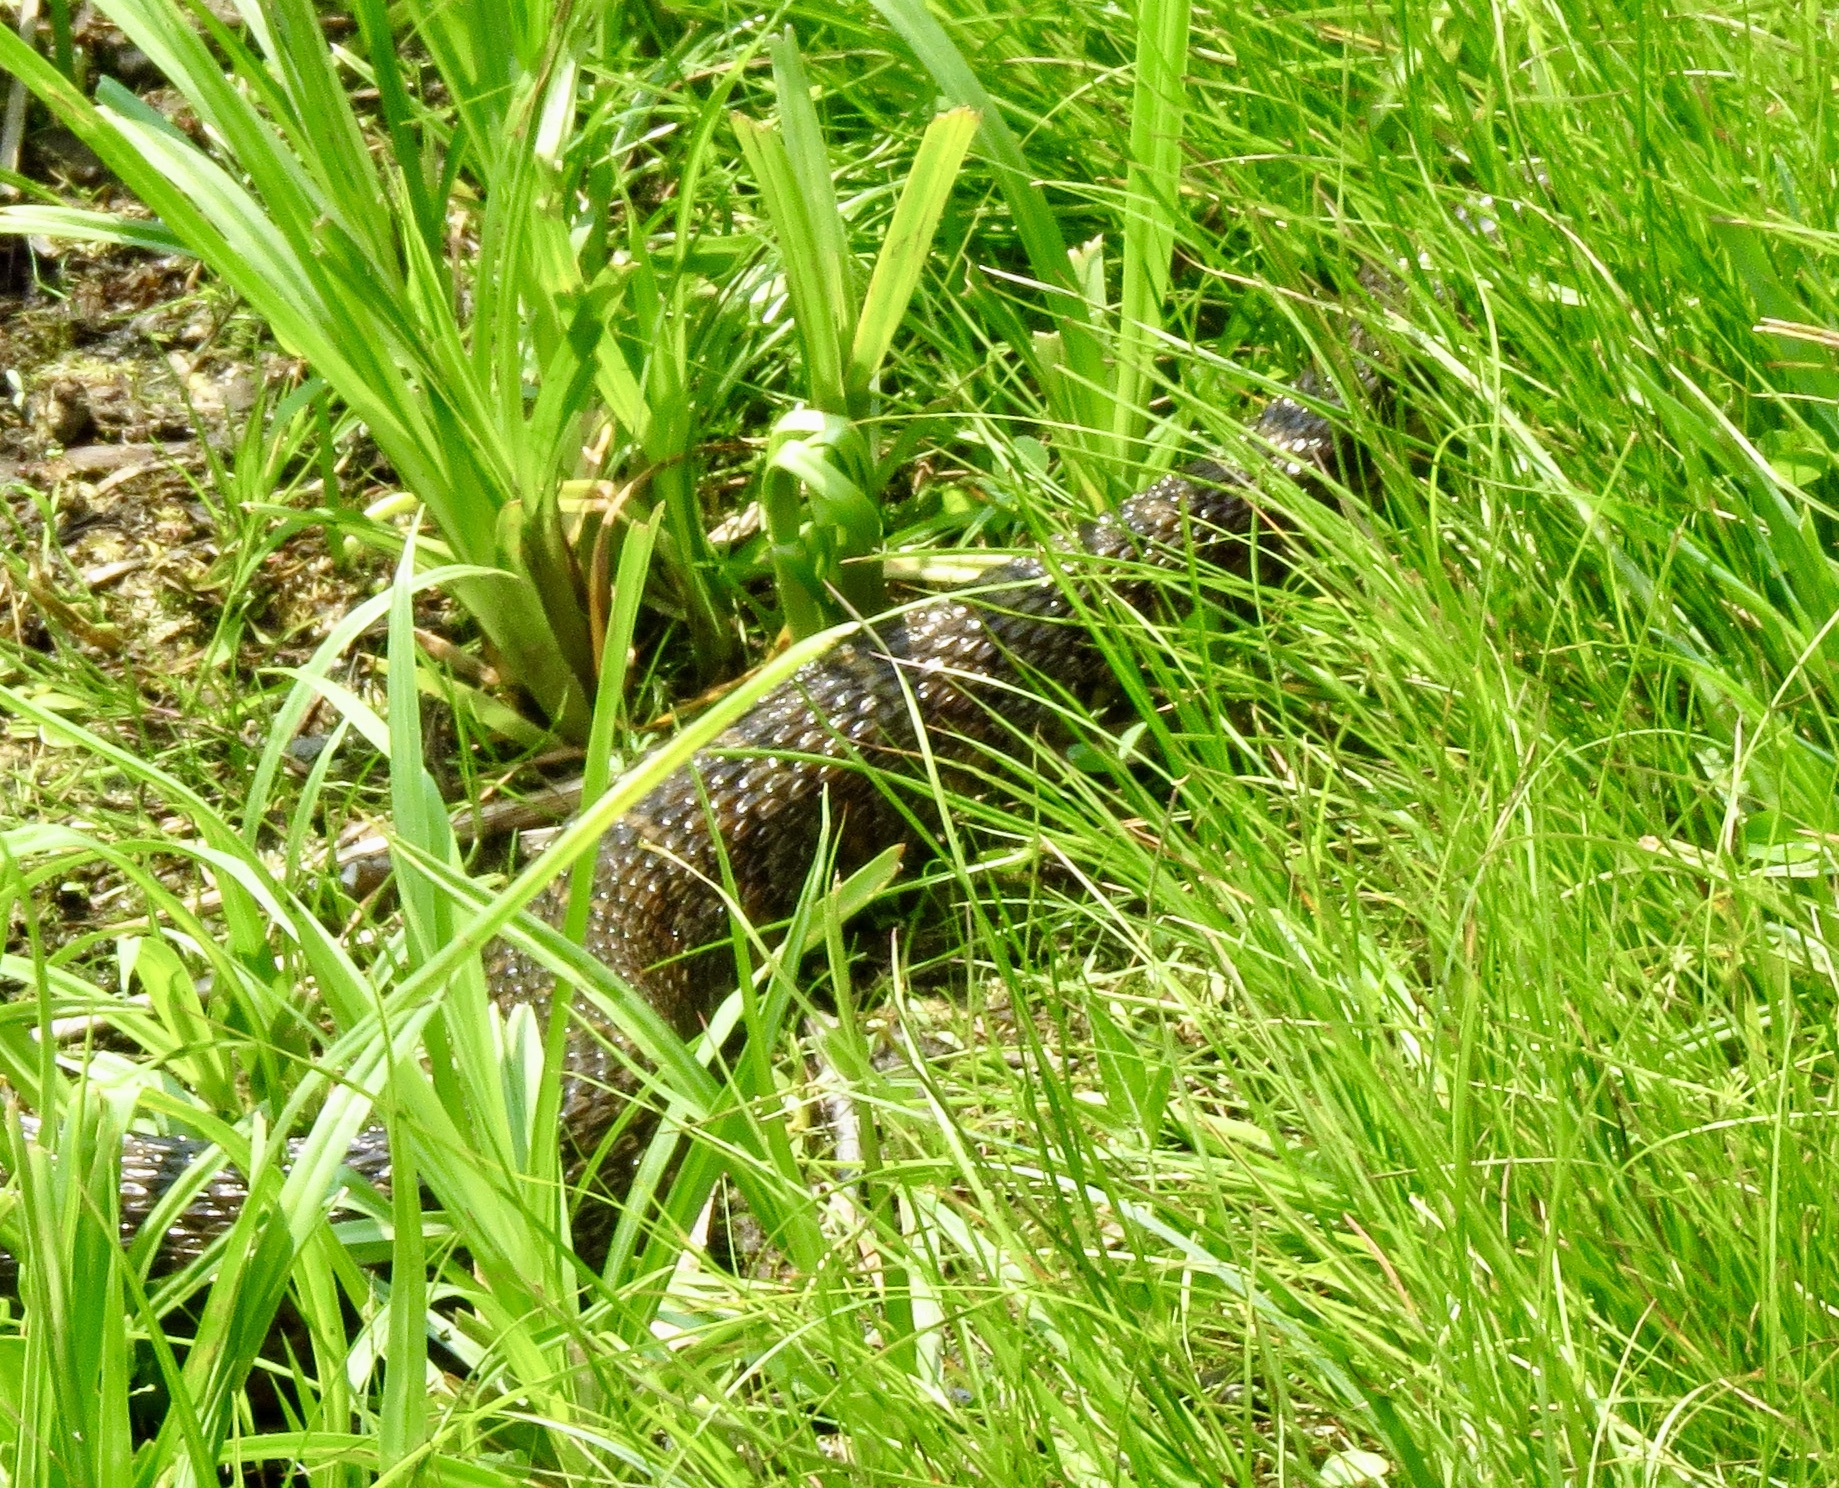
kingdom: Animalia
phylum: Chordata
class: Squamata
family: Colubridae
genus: Nerodia
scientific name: Nerodia sipedon
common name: Northern water snake
